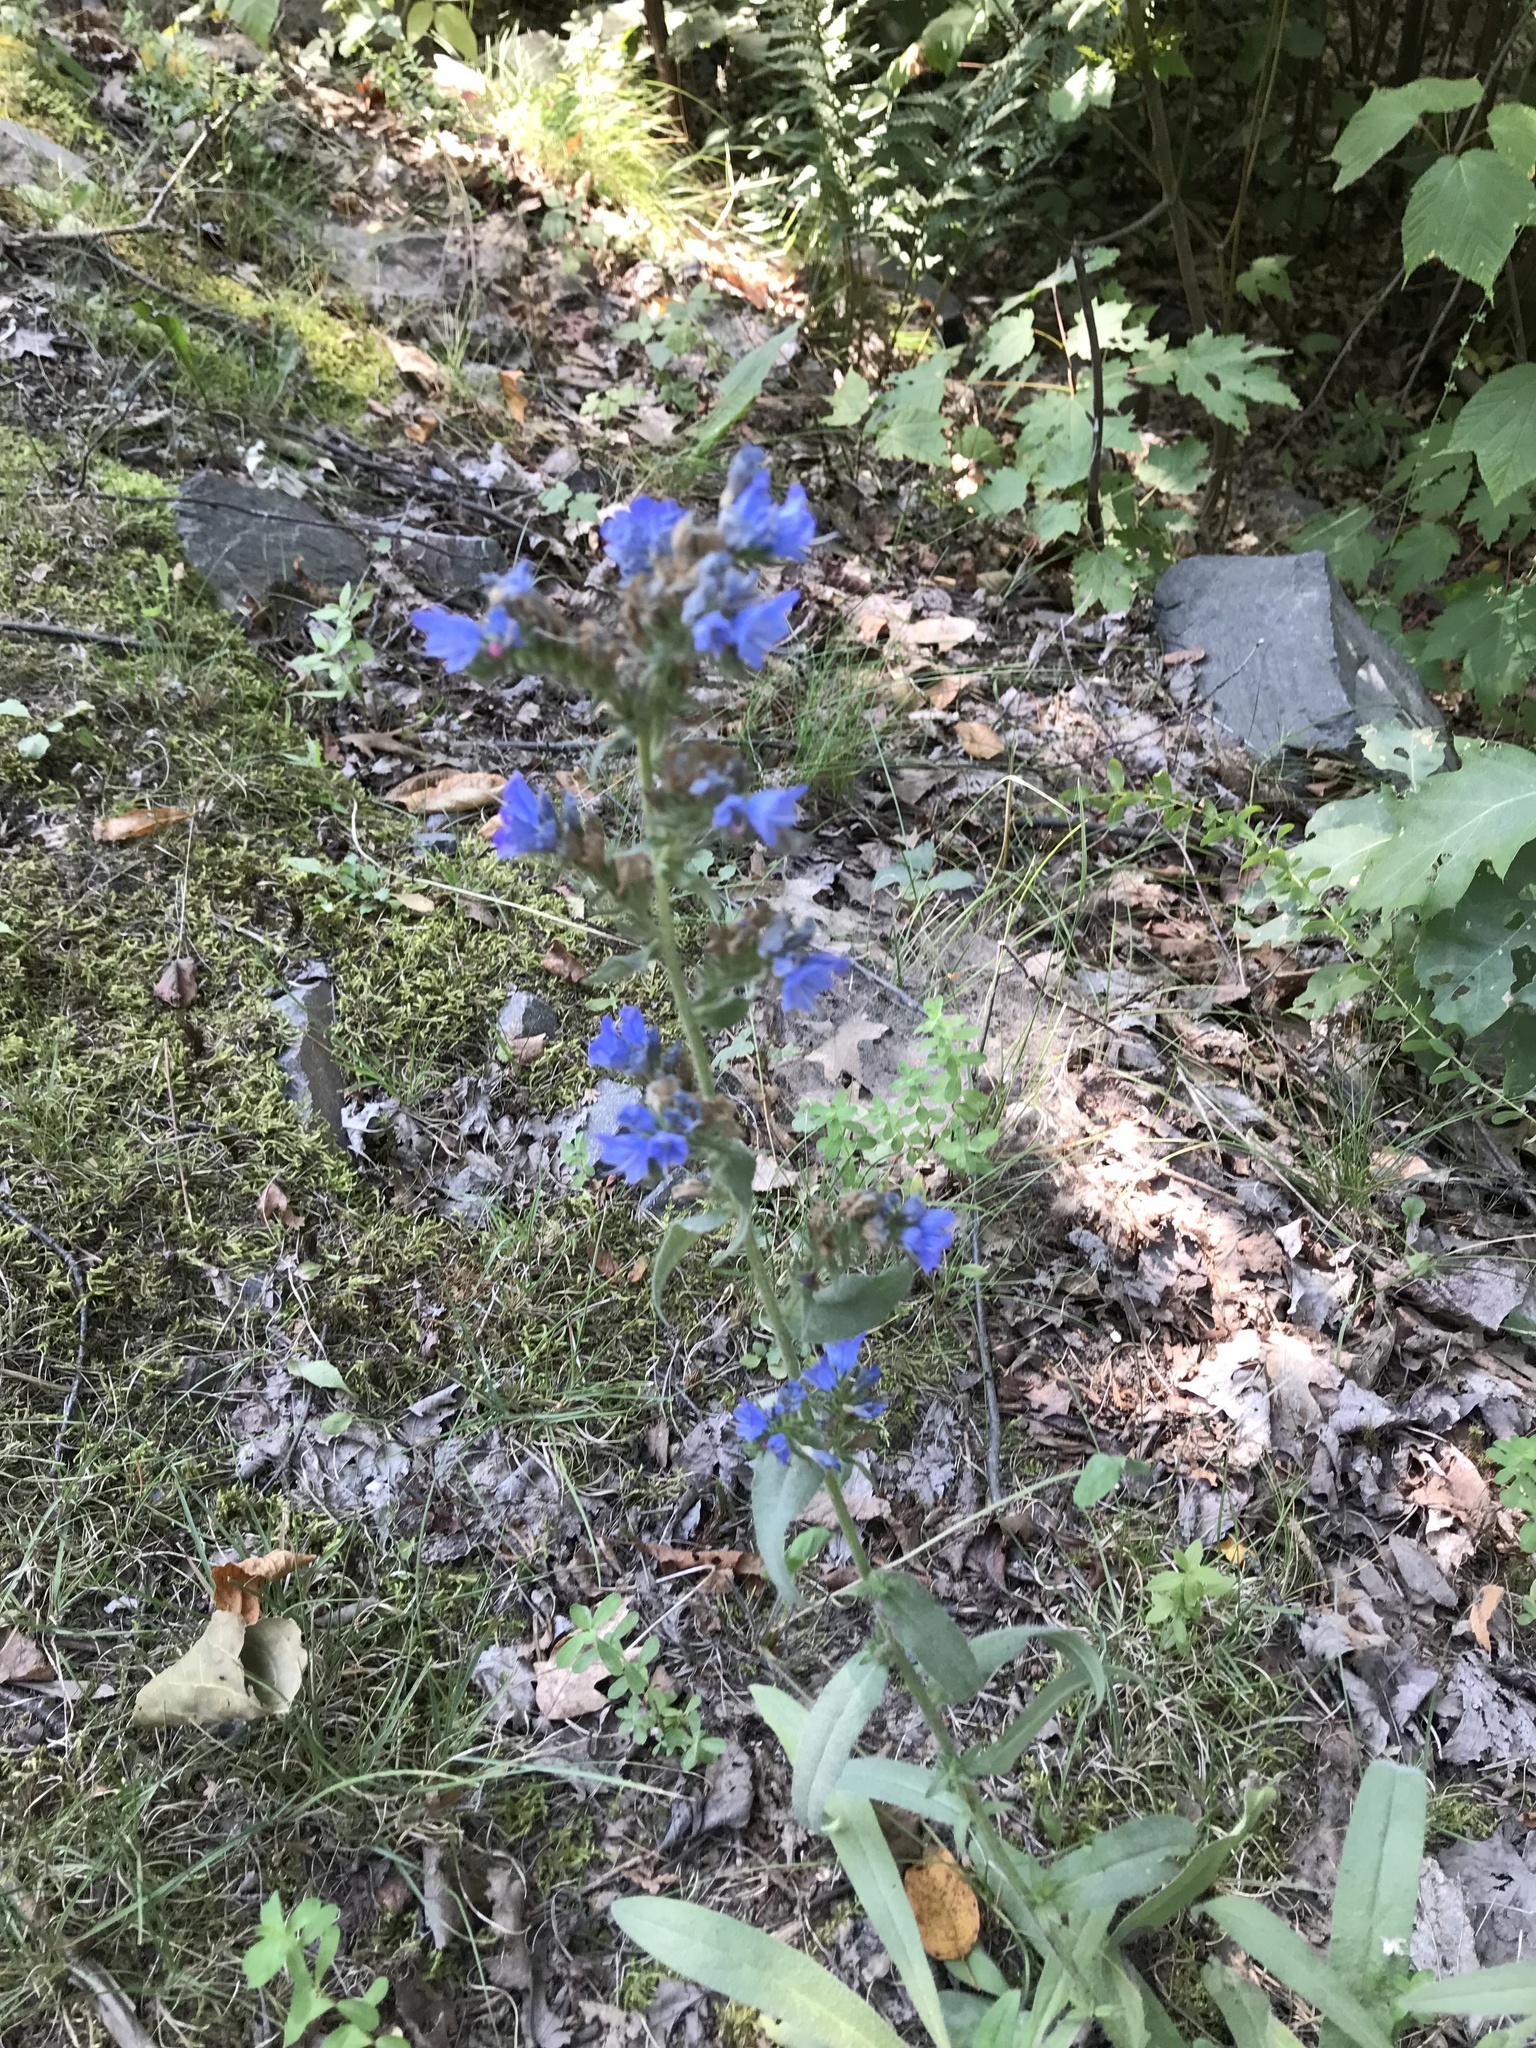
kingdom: Plantae
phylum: Tracheophyta
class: Magnoliopsida
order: Boraginales
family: Boraginaceae
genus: Echium
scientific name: Echium vulgare
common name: Common viper's bugloss
